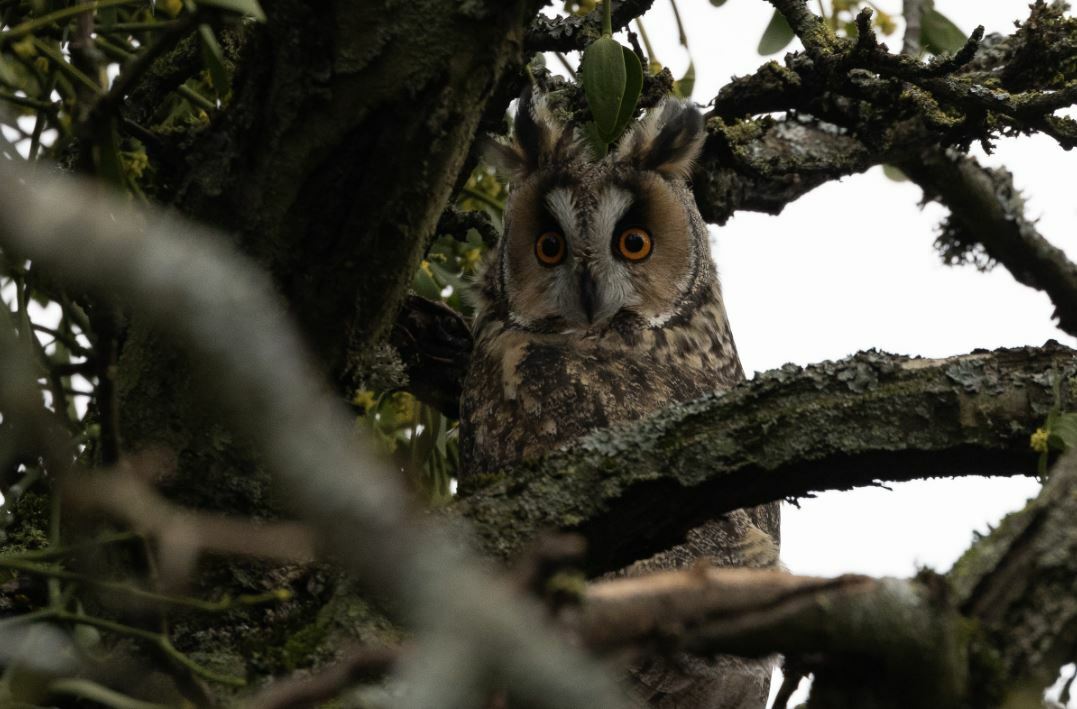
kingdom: Animalia
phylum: Chordata
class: Aves
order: Strigiformes
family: Strigidae
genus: Asio
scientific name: Asio otus
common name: Long-eared owl
